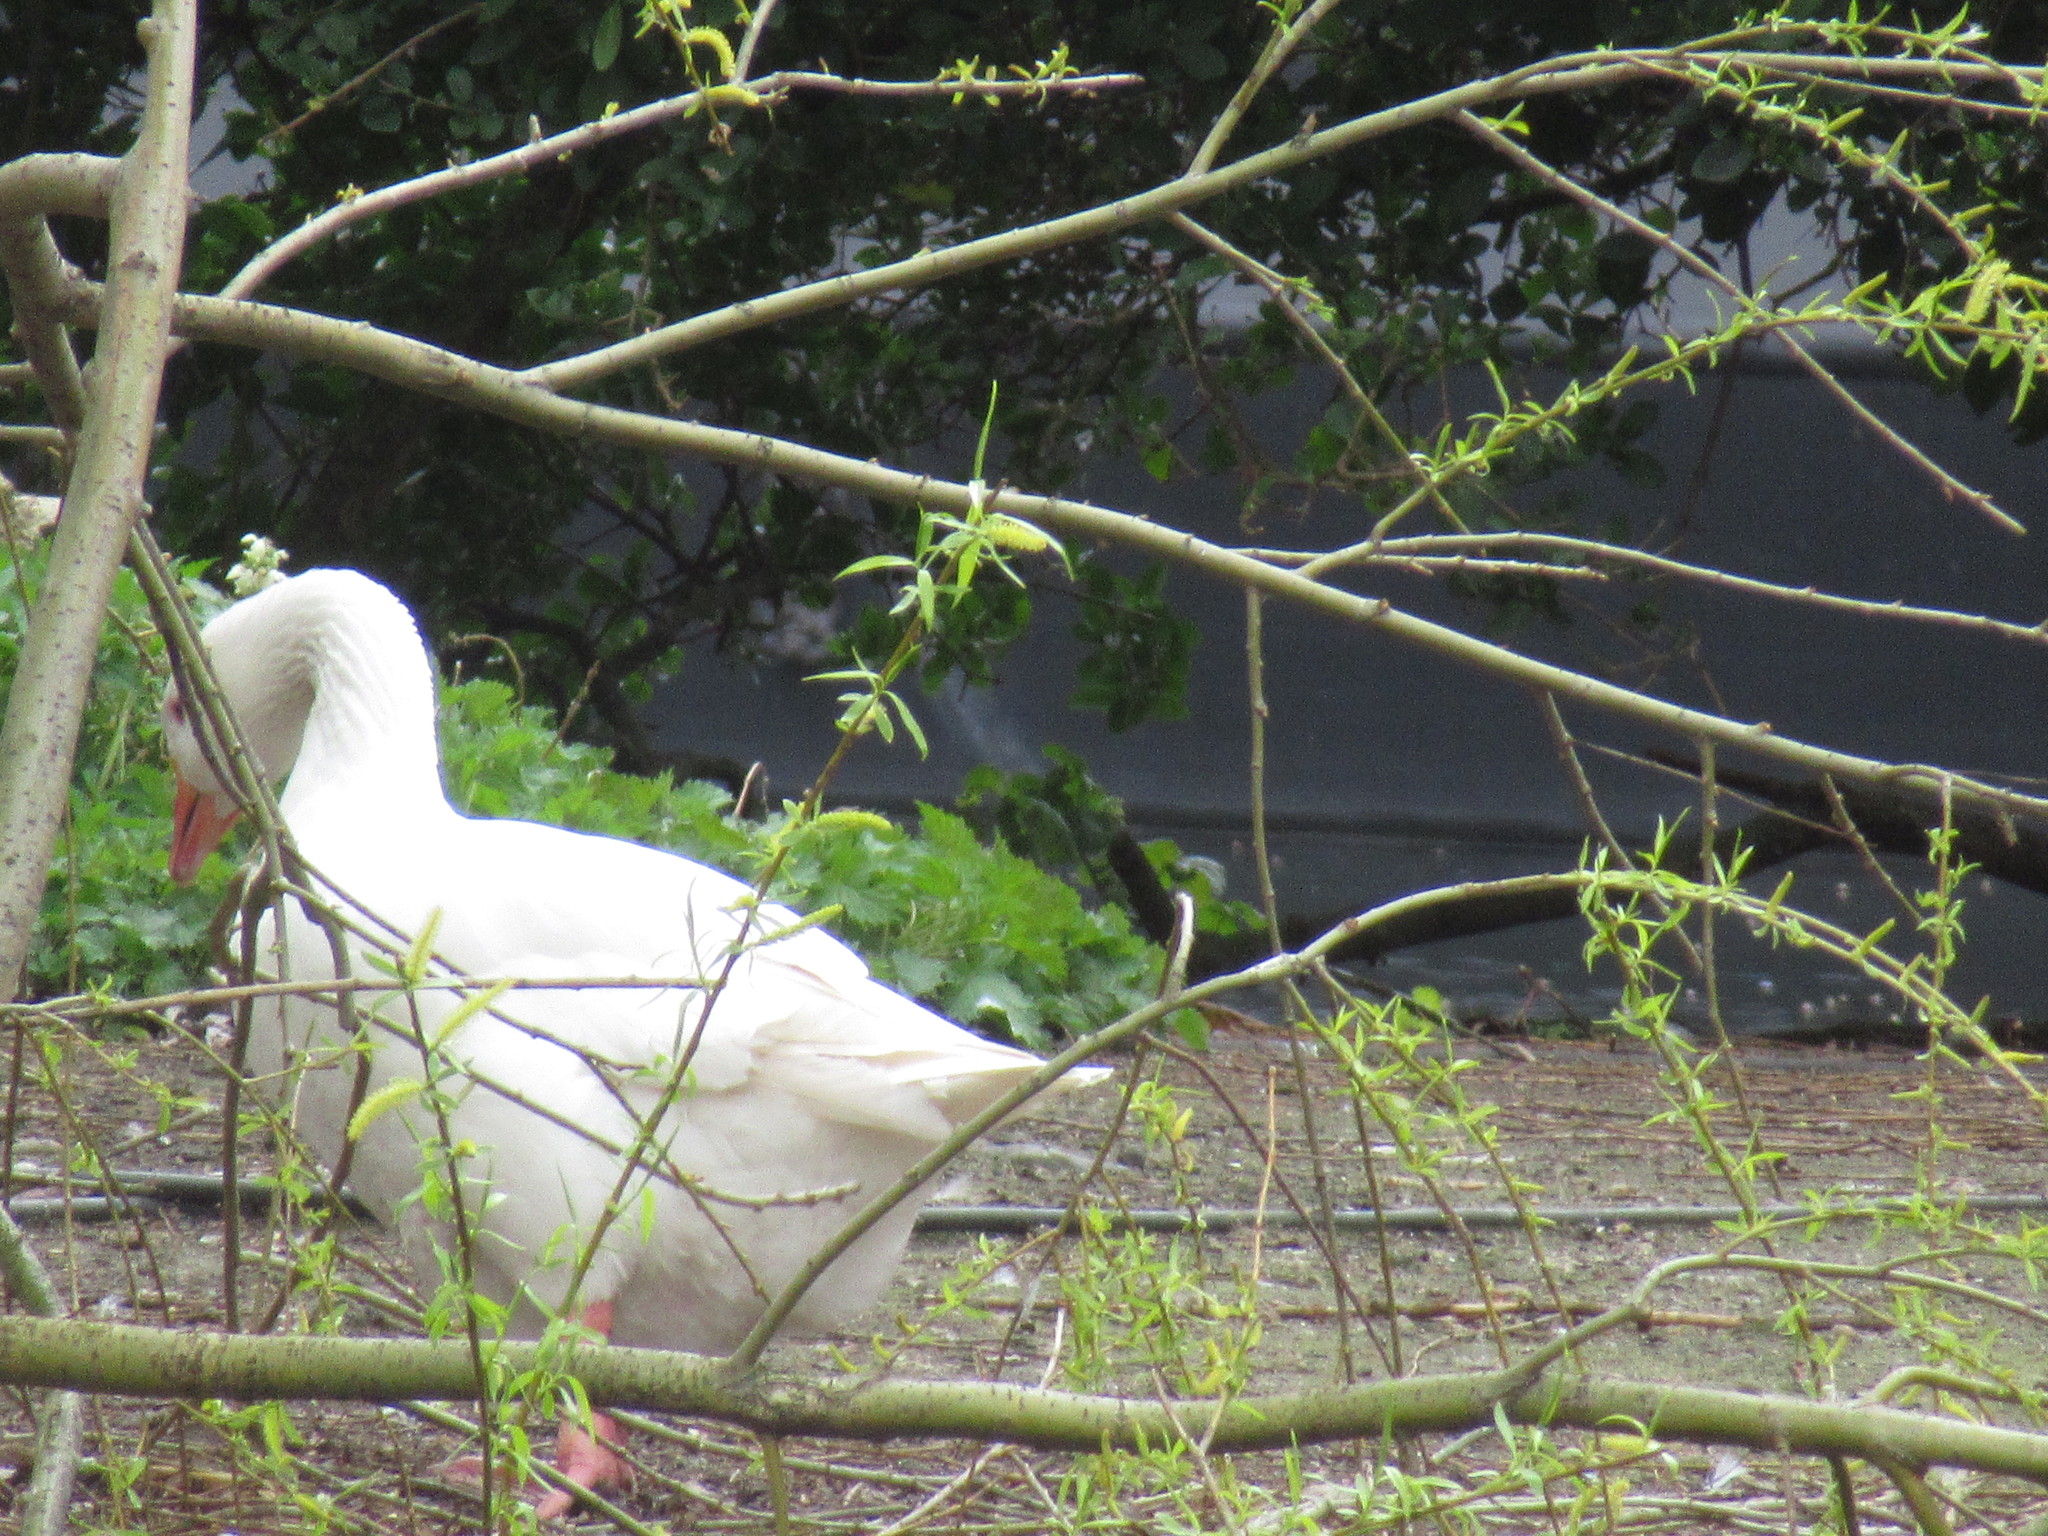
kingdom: Animalia
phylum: Chordata
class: Aves
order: Anseriformes
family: Anatidae
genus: Anser
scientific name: Anser anser
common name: Greylag goose
